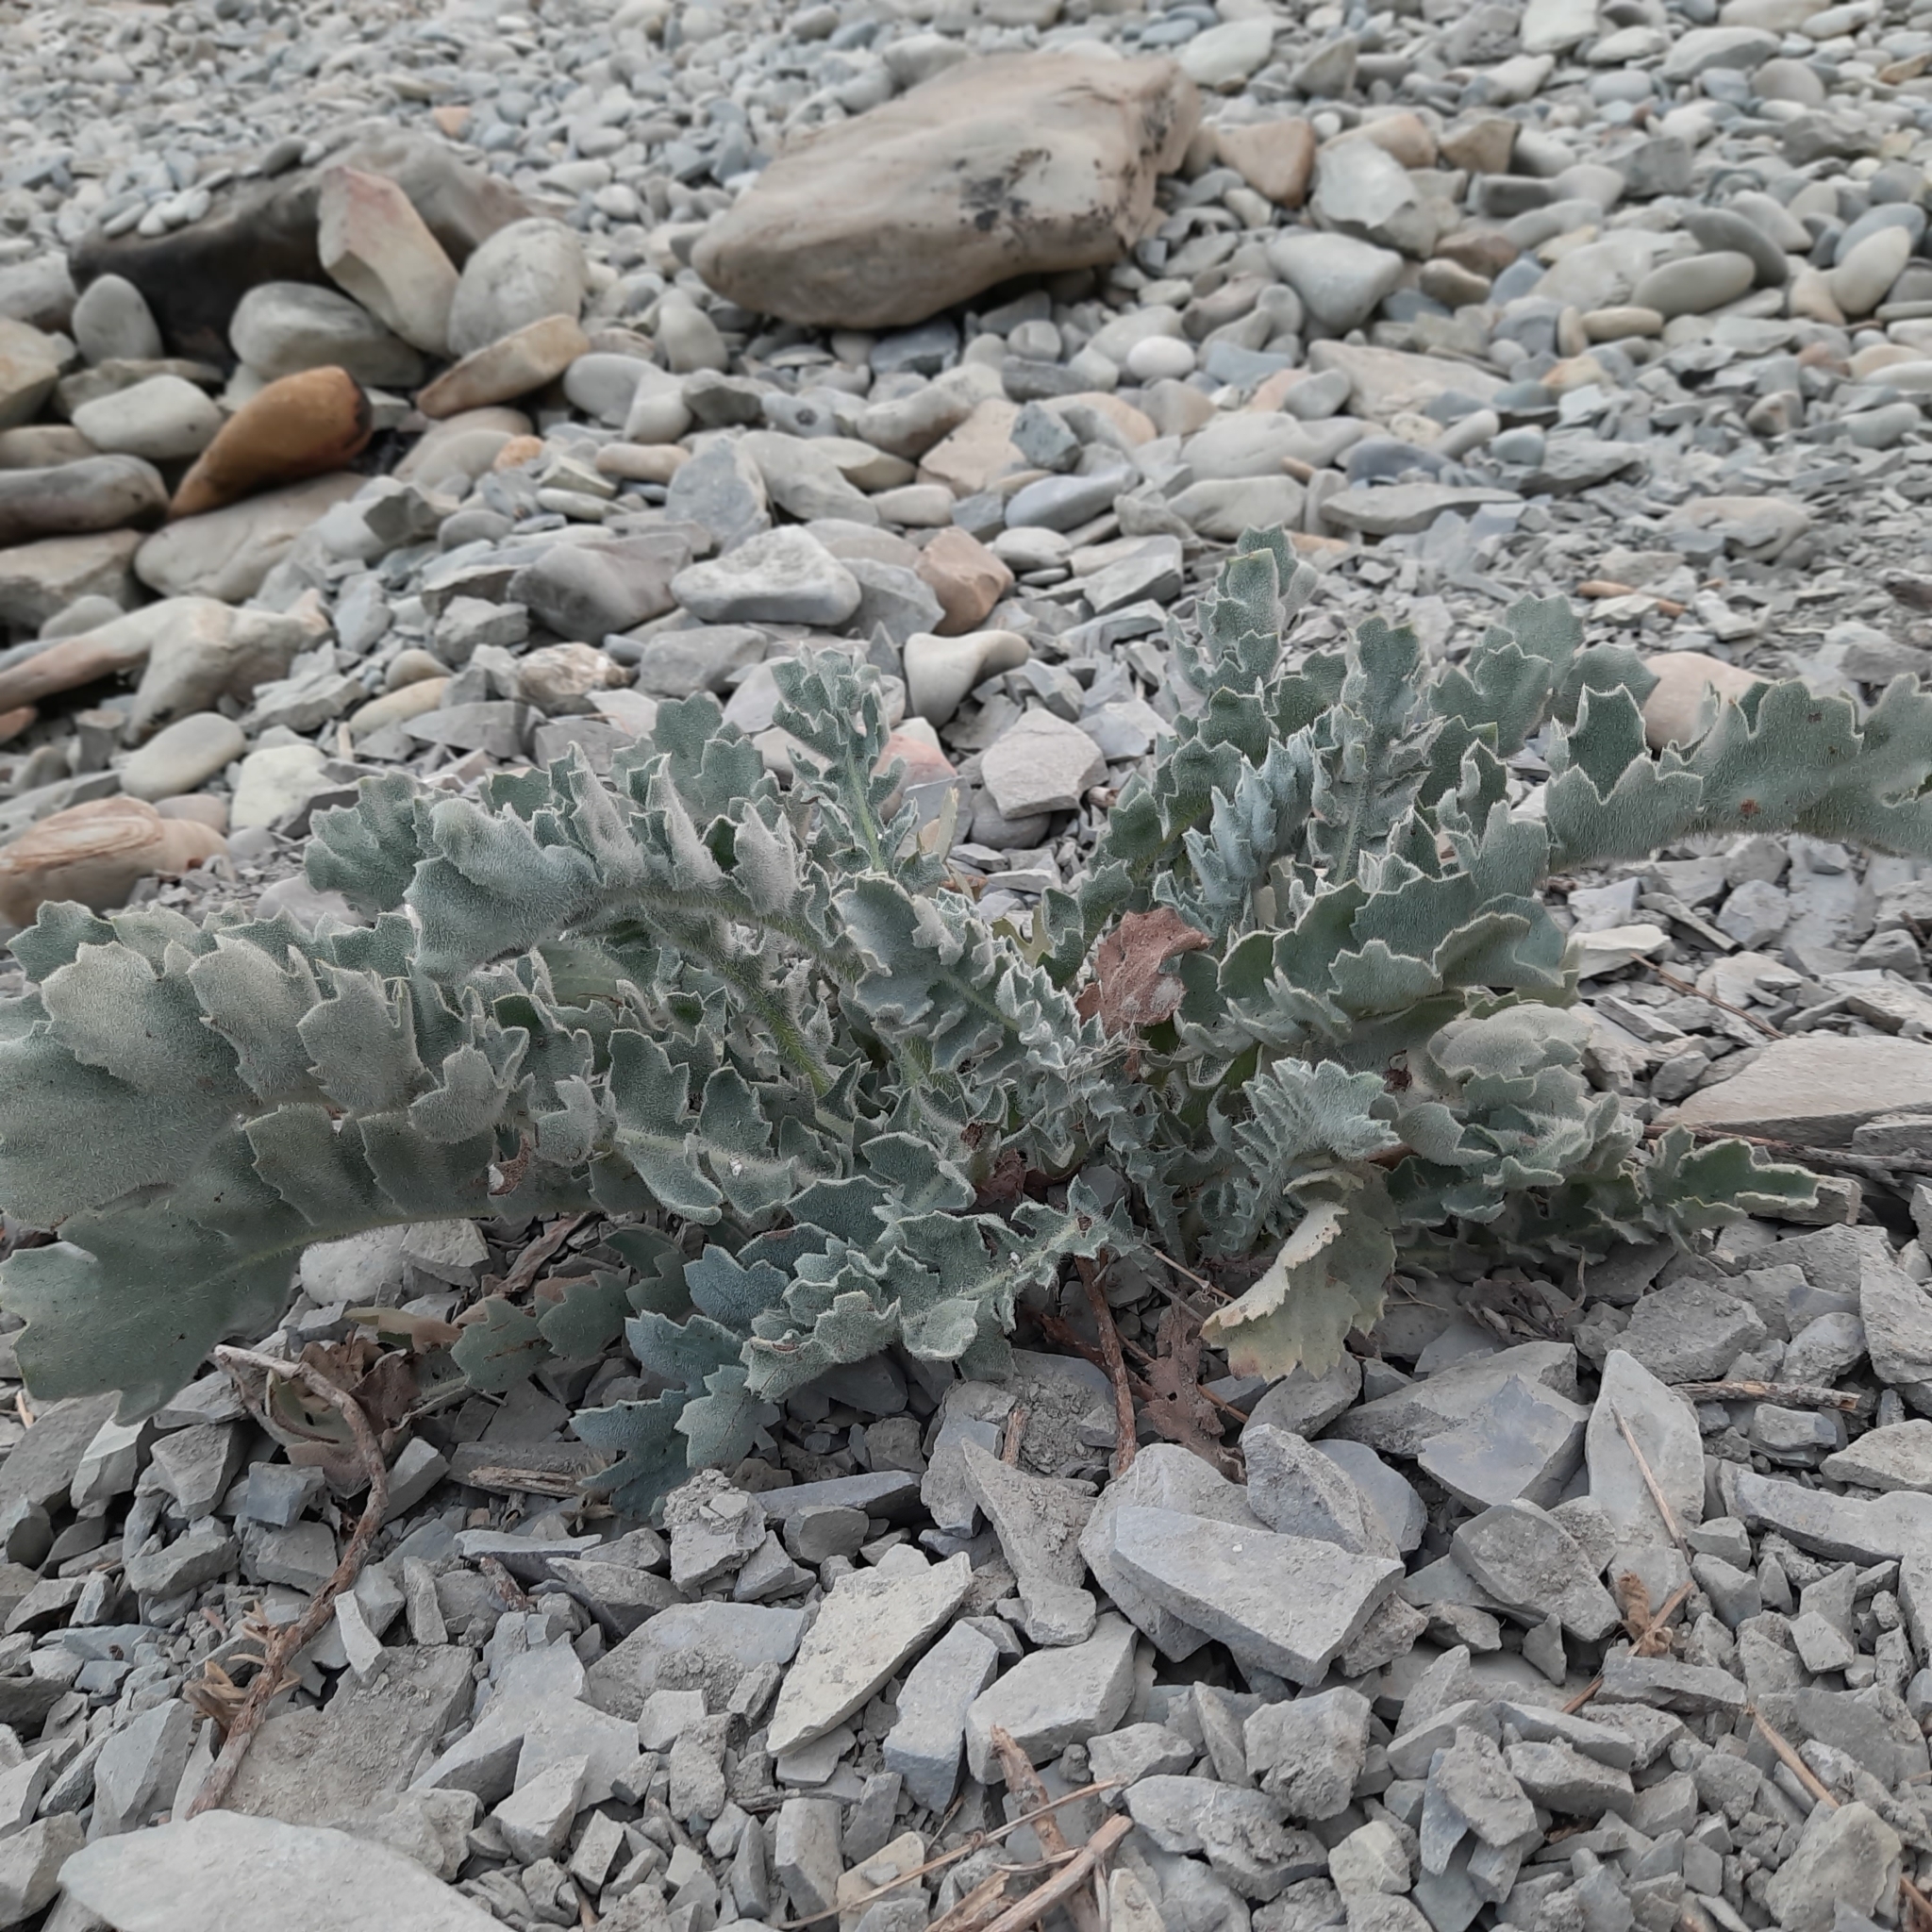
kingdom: Plantae
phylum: Tracheophyta
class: Magnoliopsida
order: Ranunculales
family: Papaveraceae
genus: Glaucium
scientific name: Glaucium flavum
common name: Yellow horned-poppy
